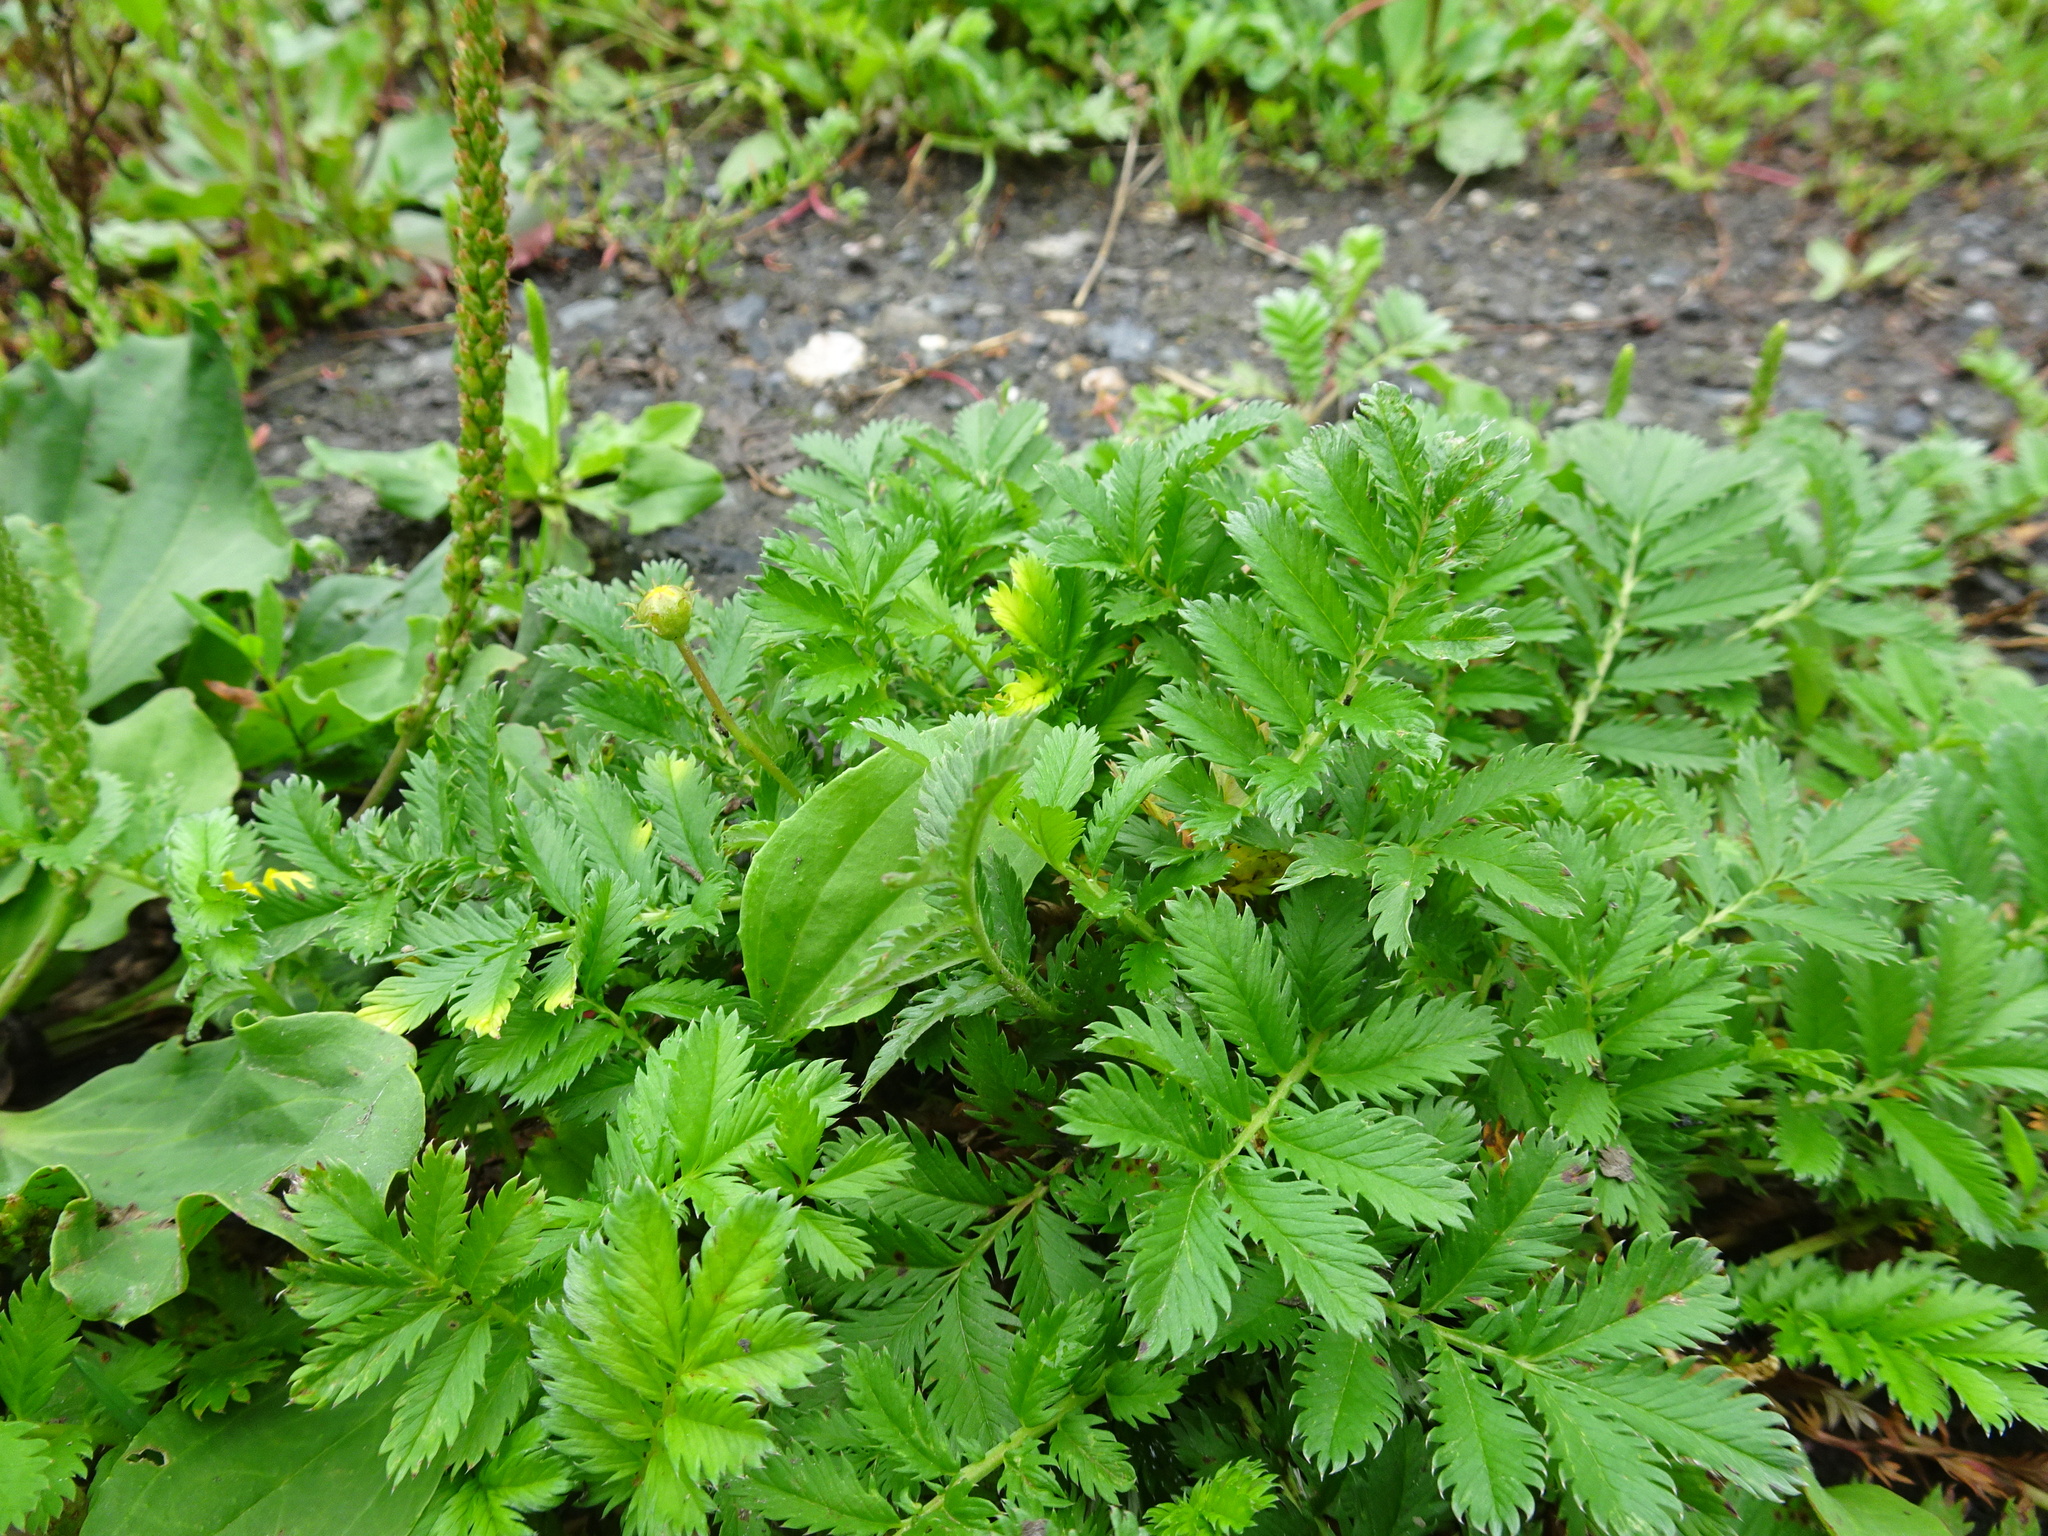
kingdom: Plantae
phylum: Tracheophyta
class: Magnoliopsida
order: Rosales
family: Rosaceae
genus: Argentina
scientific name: Argentina anserina
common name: Common silverweed
